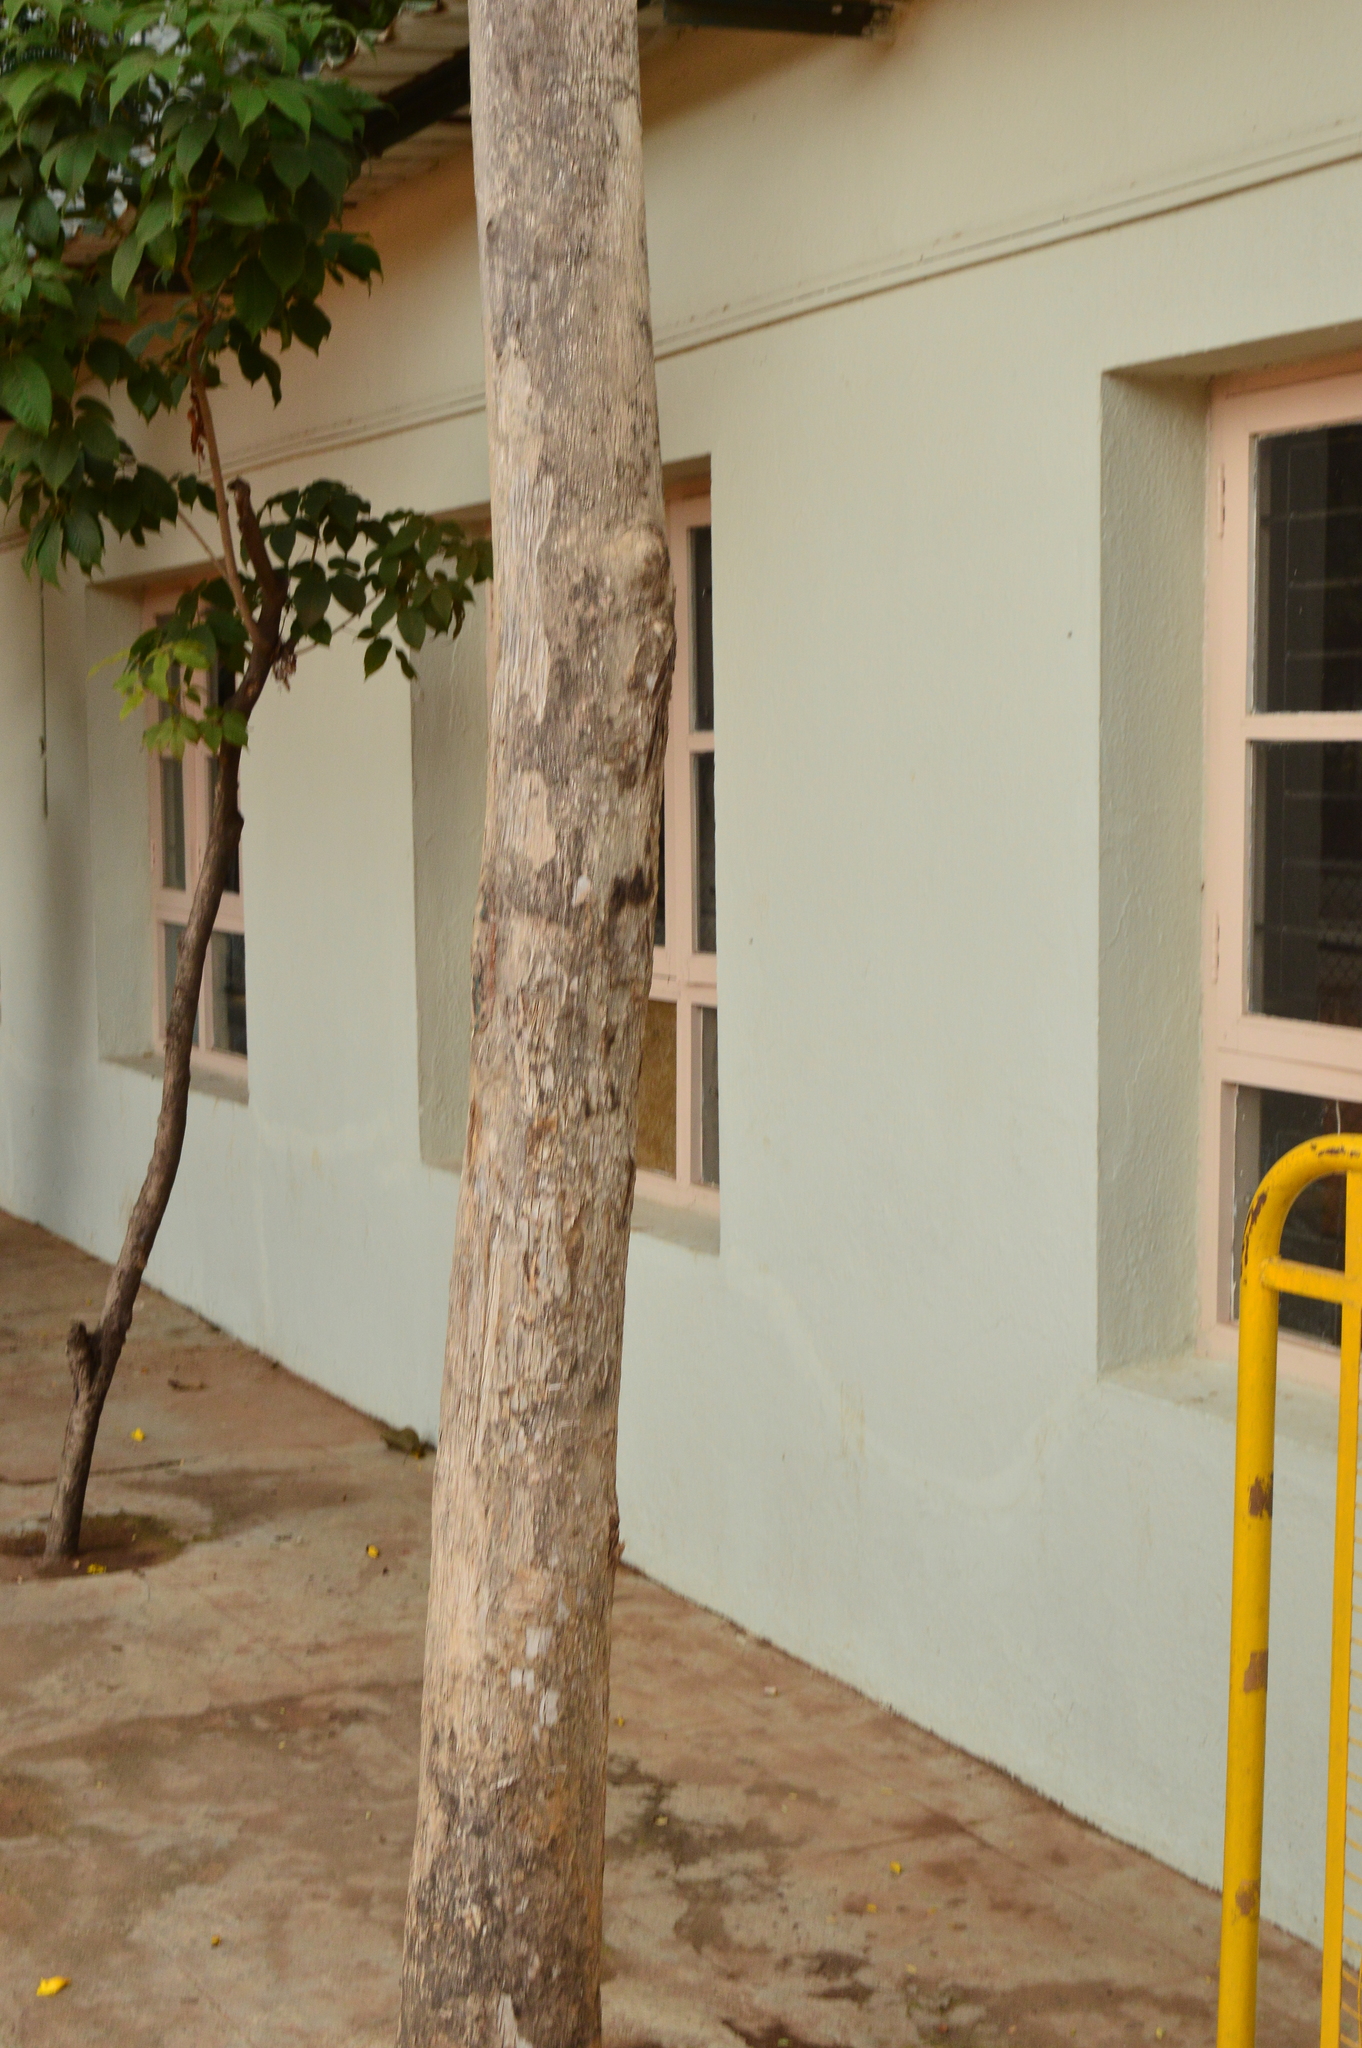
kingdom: Plantae
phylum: Tracheophyta
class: Magnoliopsida
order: Lamiales
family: Bignoniaceae
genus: Tecoma
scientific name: Tecoma stans
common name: Yellow trumpetbush
